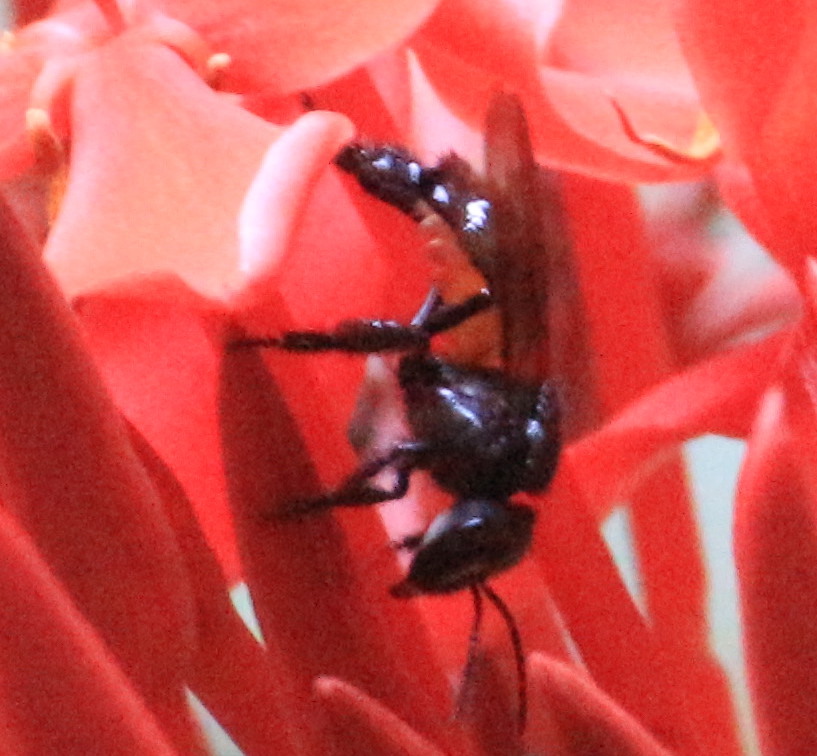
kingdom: Animalia
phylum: Arthropoda
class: Insecta
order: Hymenoptera
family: Apidae
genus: Trigona
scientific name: Trigona fulviventris
